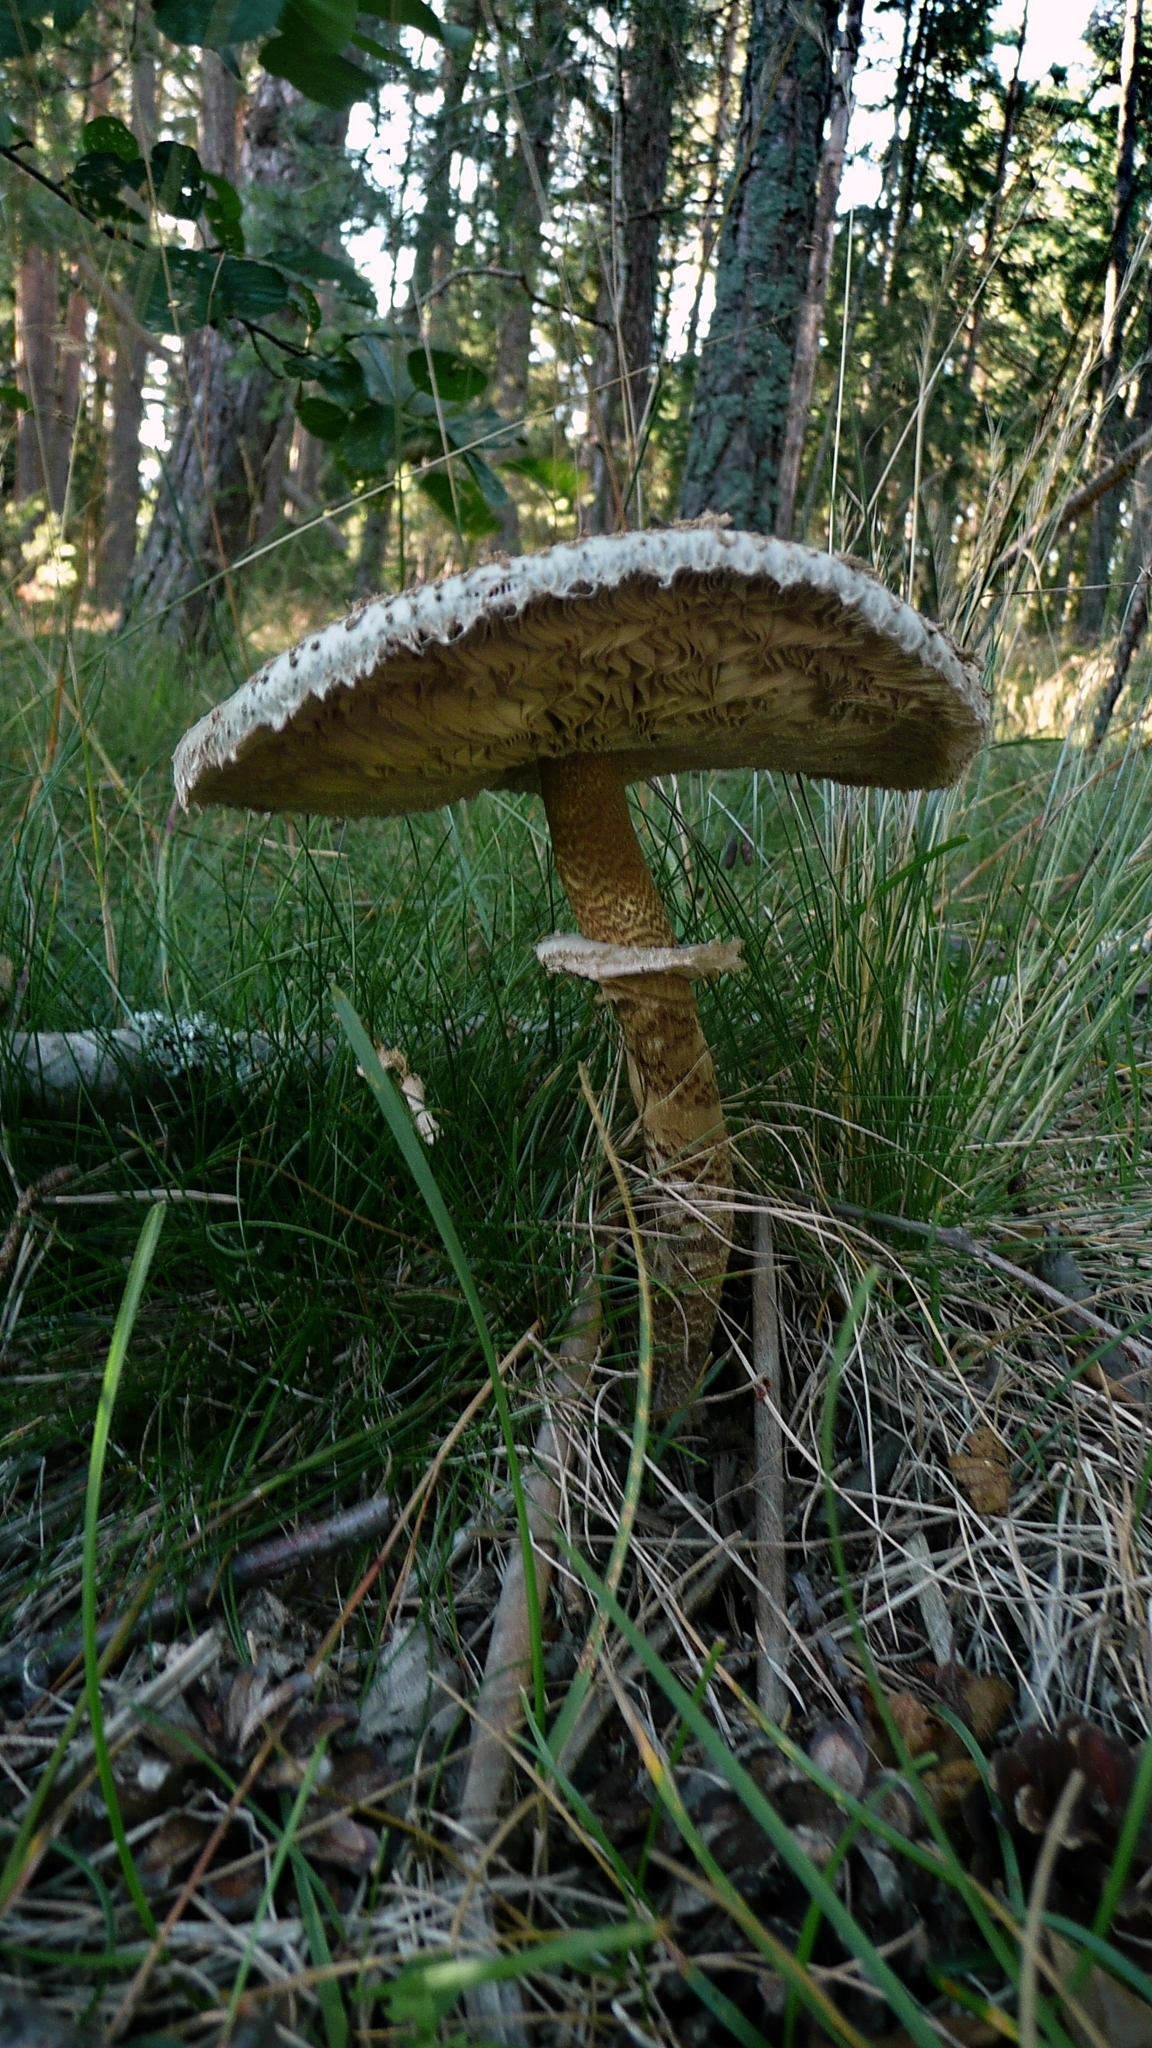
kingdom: Fungi
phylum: Basidiomycota
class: Agaricomycetes
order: Agaricales
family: Agaricaceae
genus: Macrolepiota
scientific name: Macrolepiota procera
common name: Parasol
